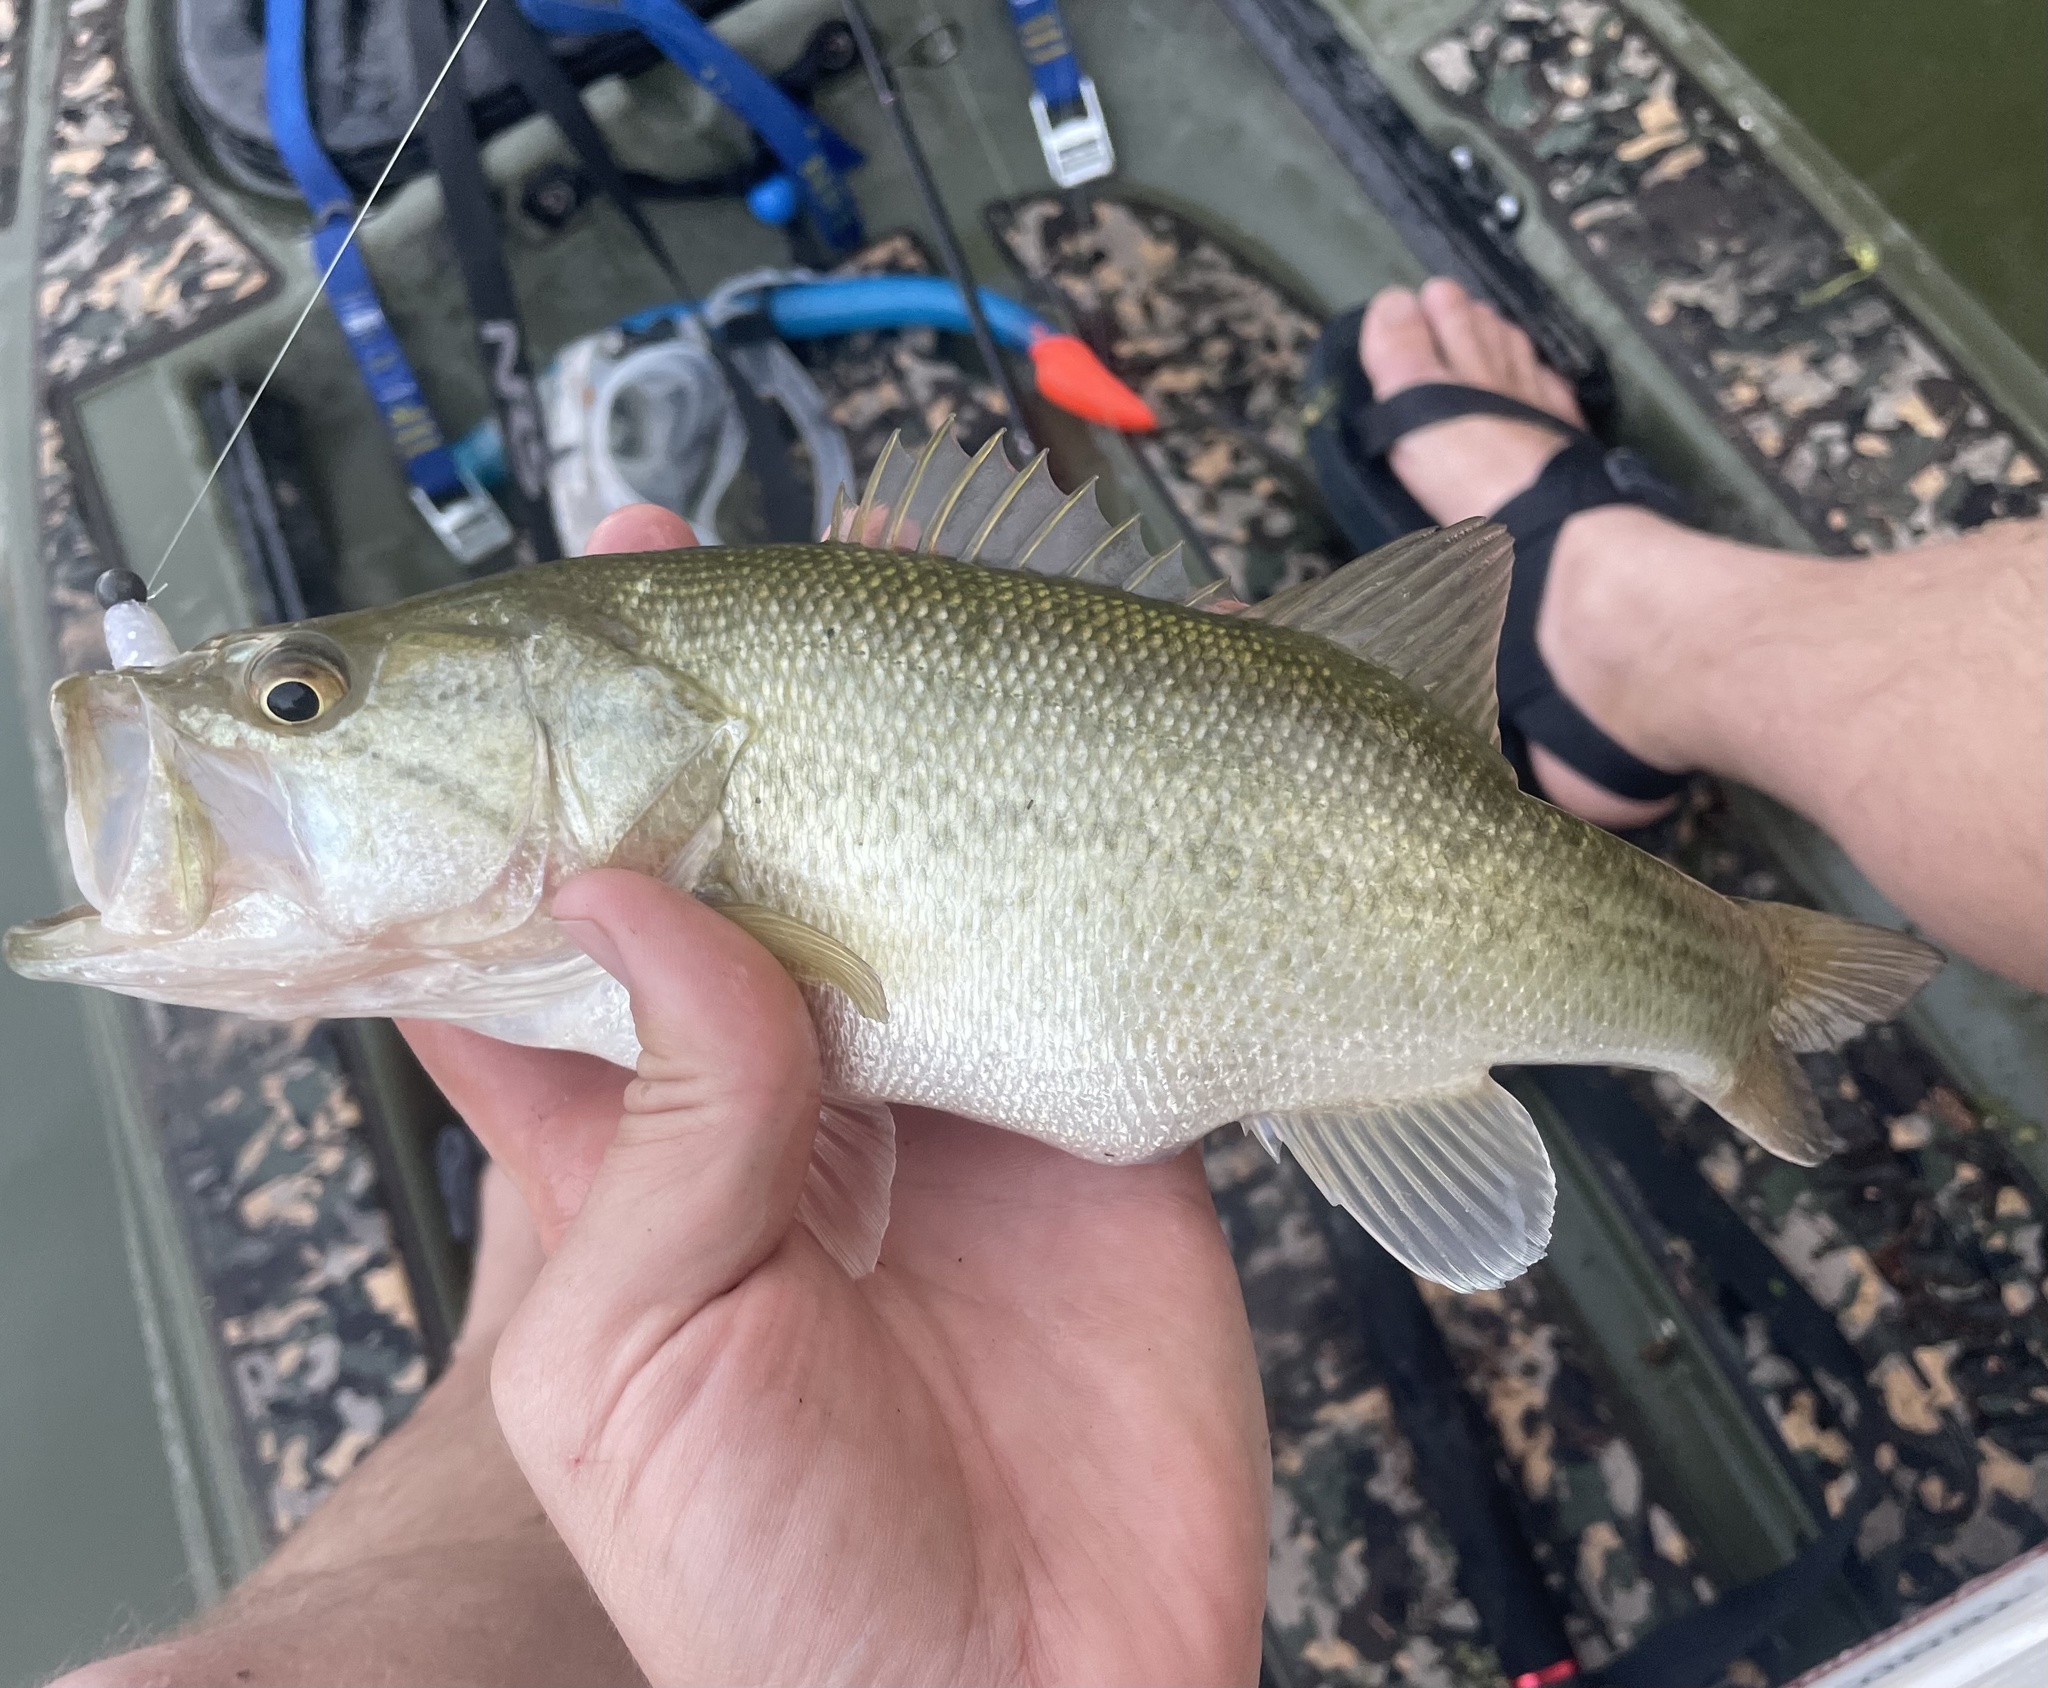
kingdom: Animalia
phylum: Chordata
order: Perciformes
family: Centrarchidae
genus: Micropterus
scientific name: Micropterus
